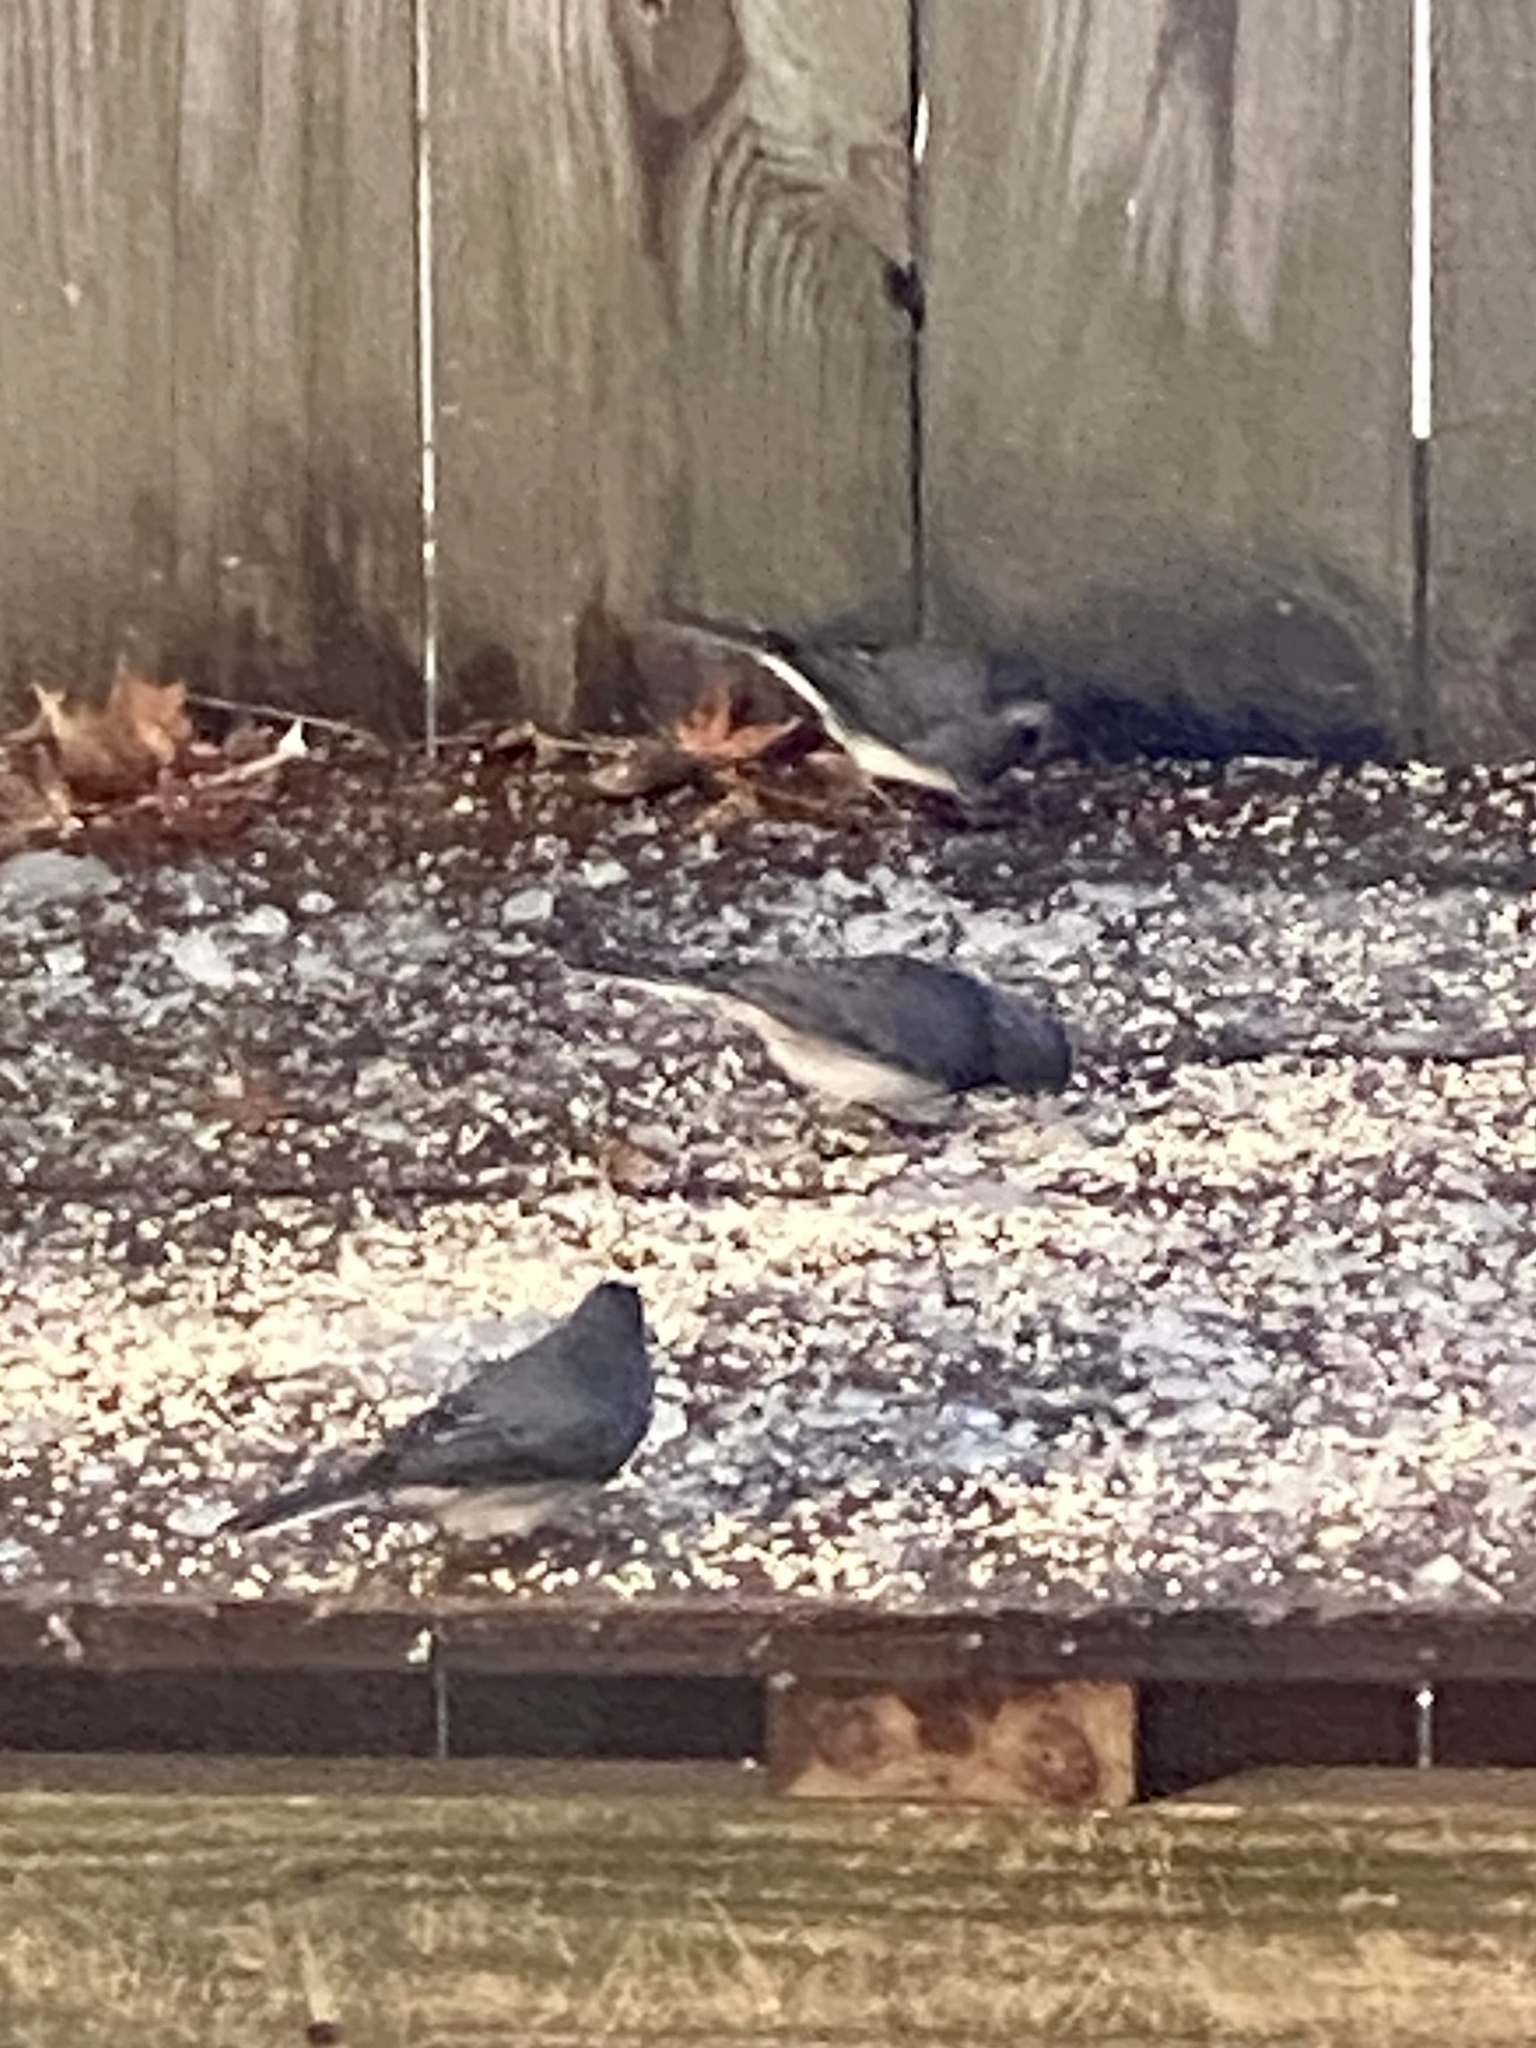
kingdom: Animalia
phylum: Chordata
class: Aves
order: Passeriformes
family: Passerellidae
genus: Junco
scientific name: Junco hyemalis
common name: Dark-eyed junco
